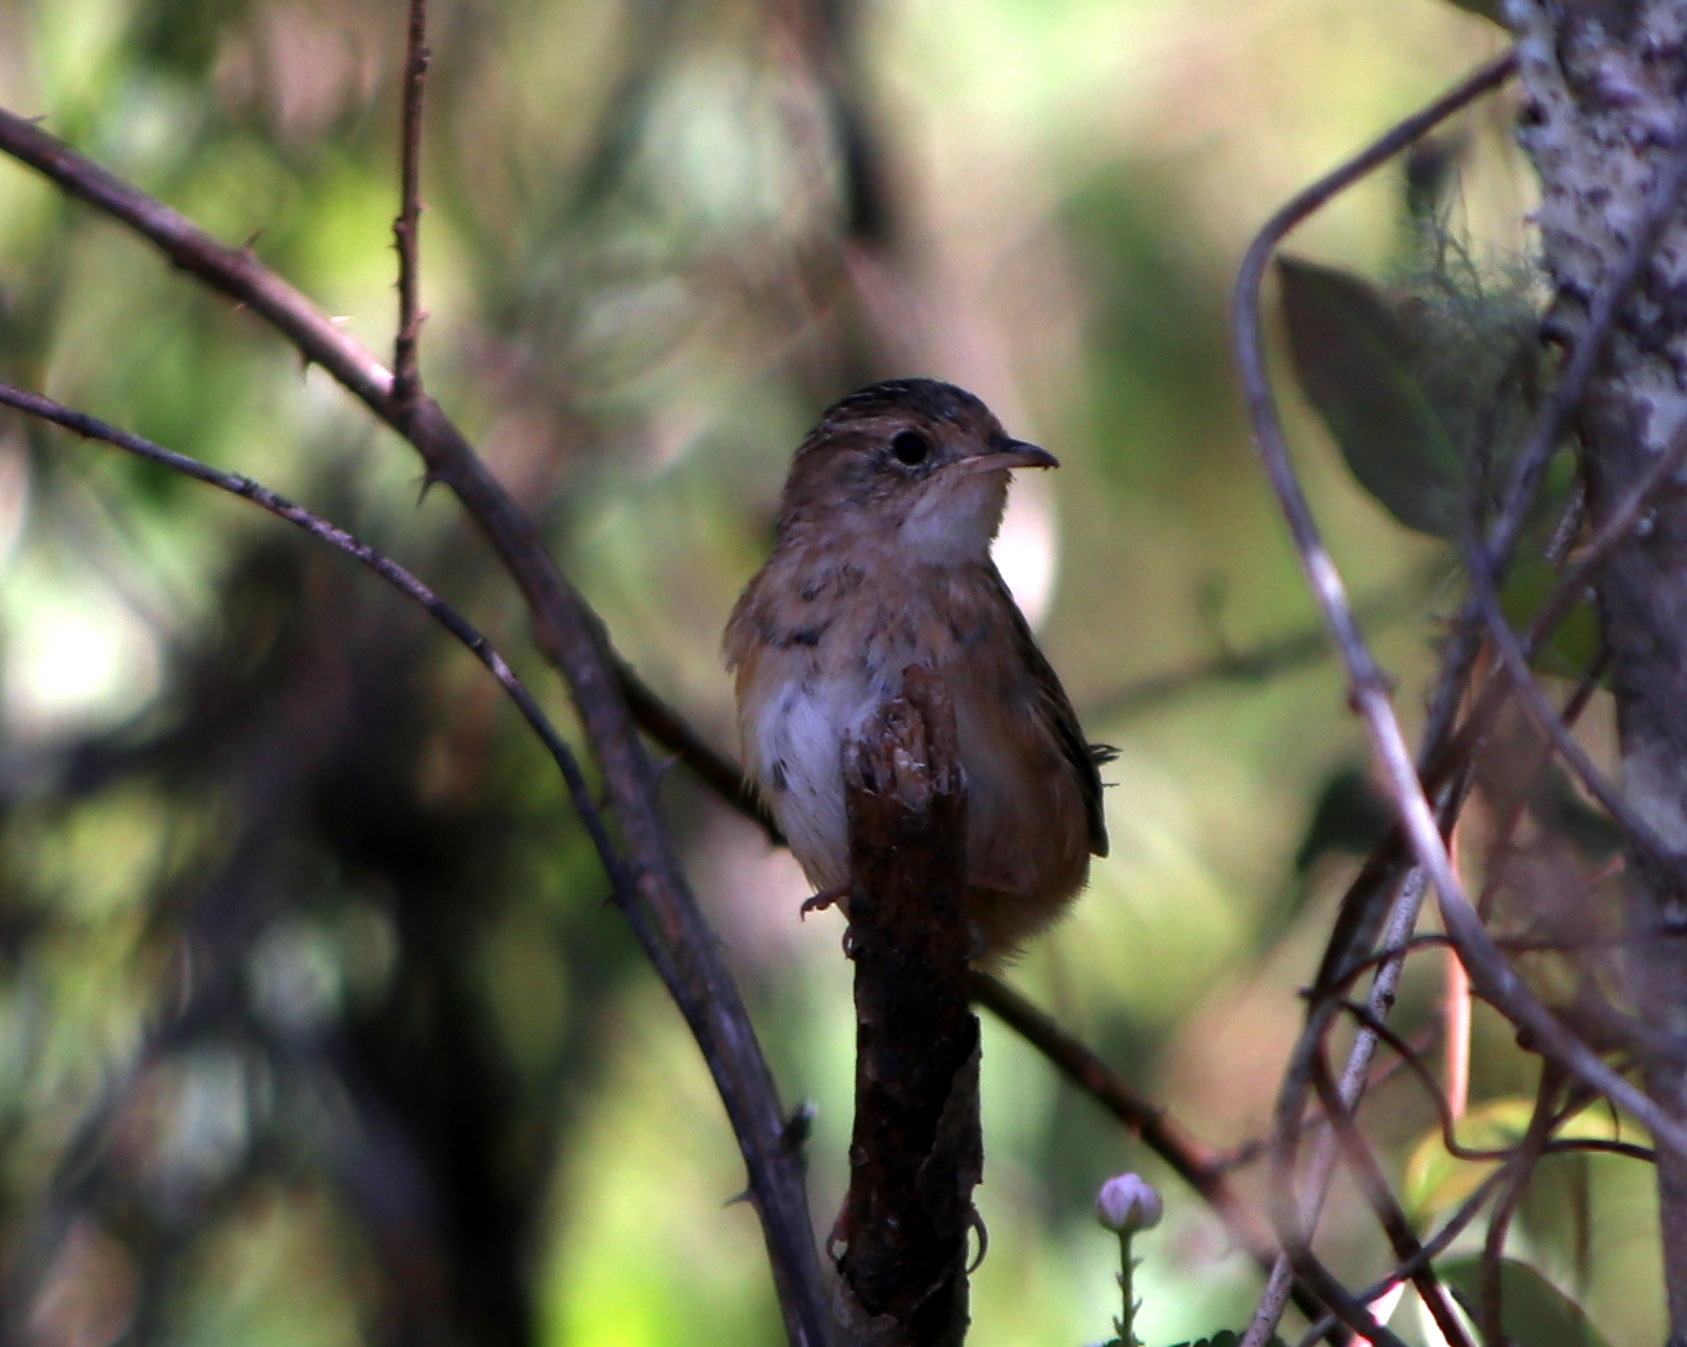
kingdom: Animalia
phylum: Chordata
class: Aves
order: Passeriformes
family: Troglodytidae
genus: Cistothorus
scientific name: Cistothorus platensis
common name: Sedge wren
